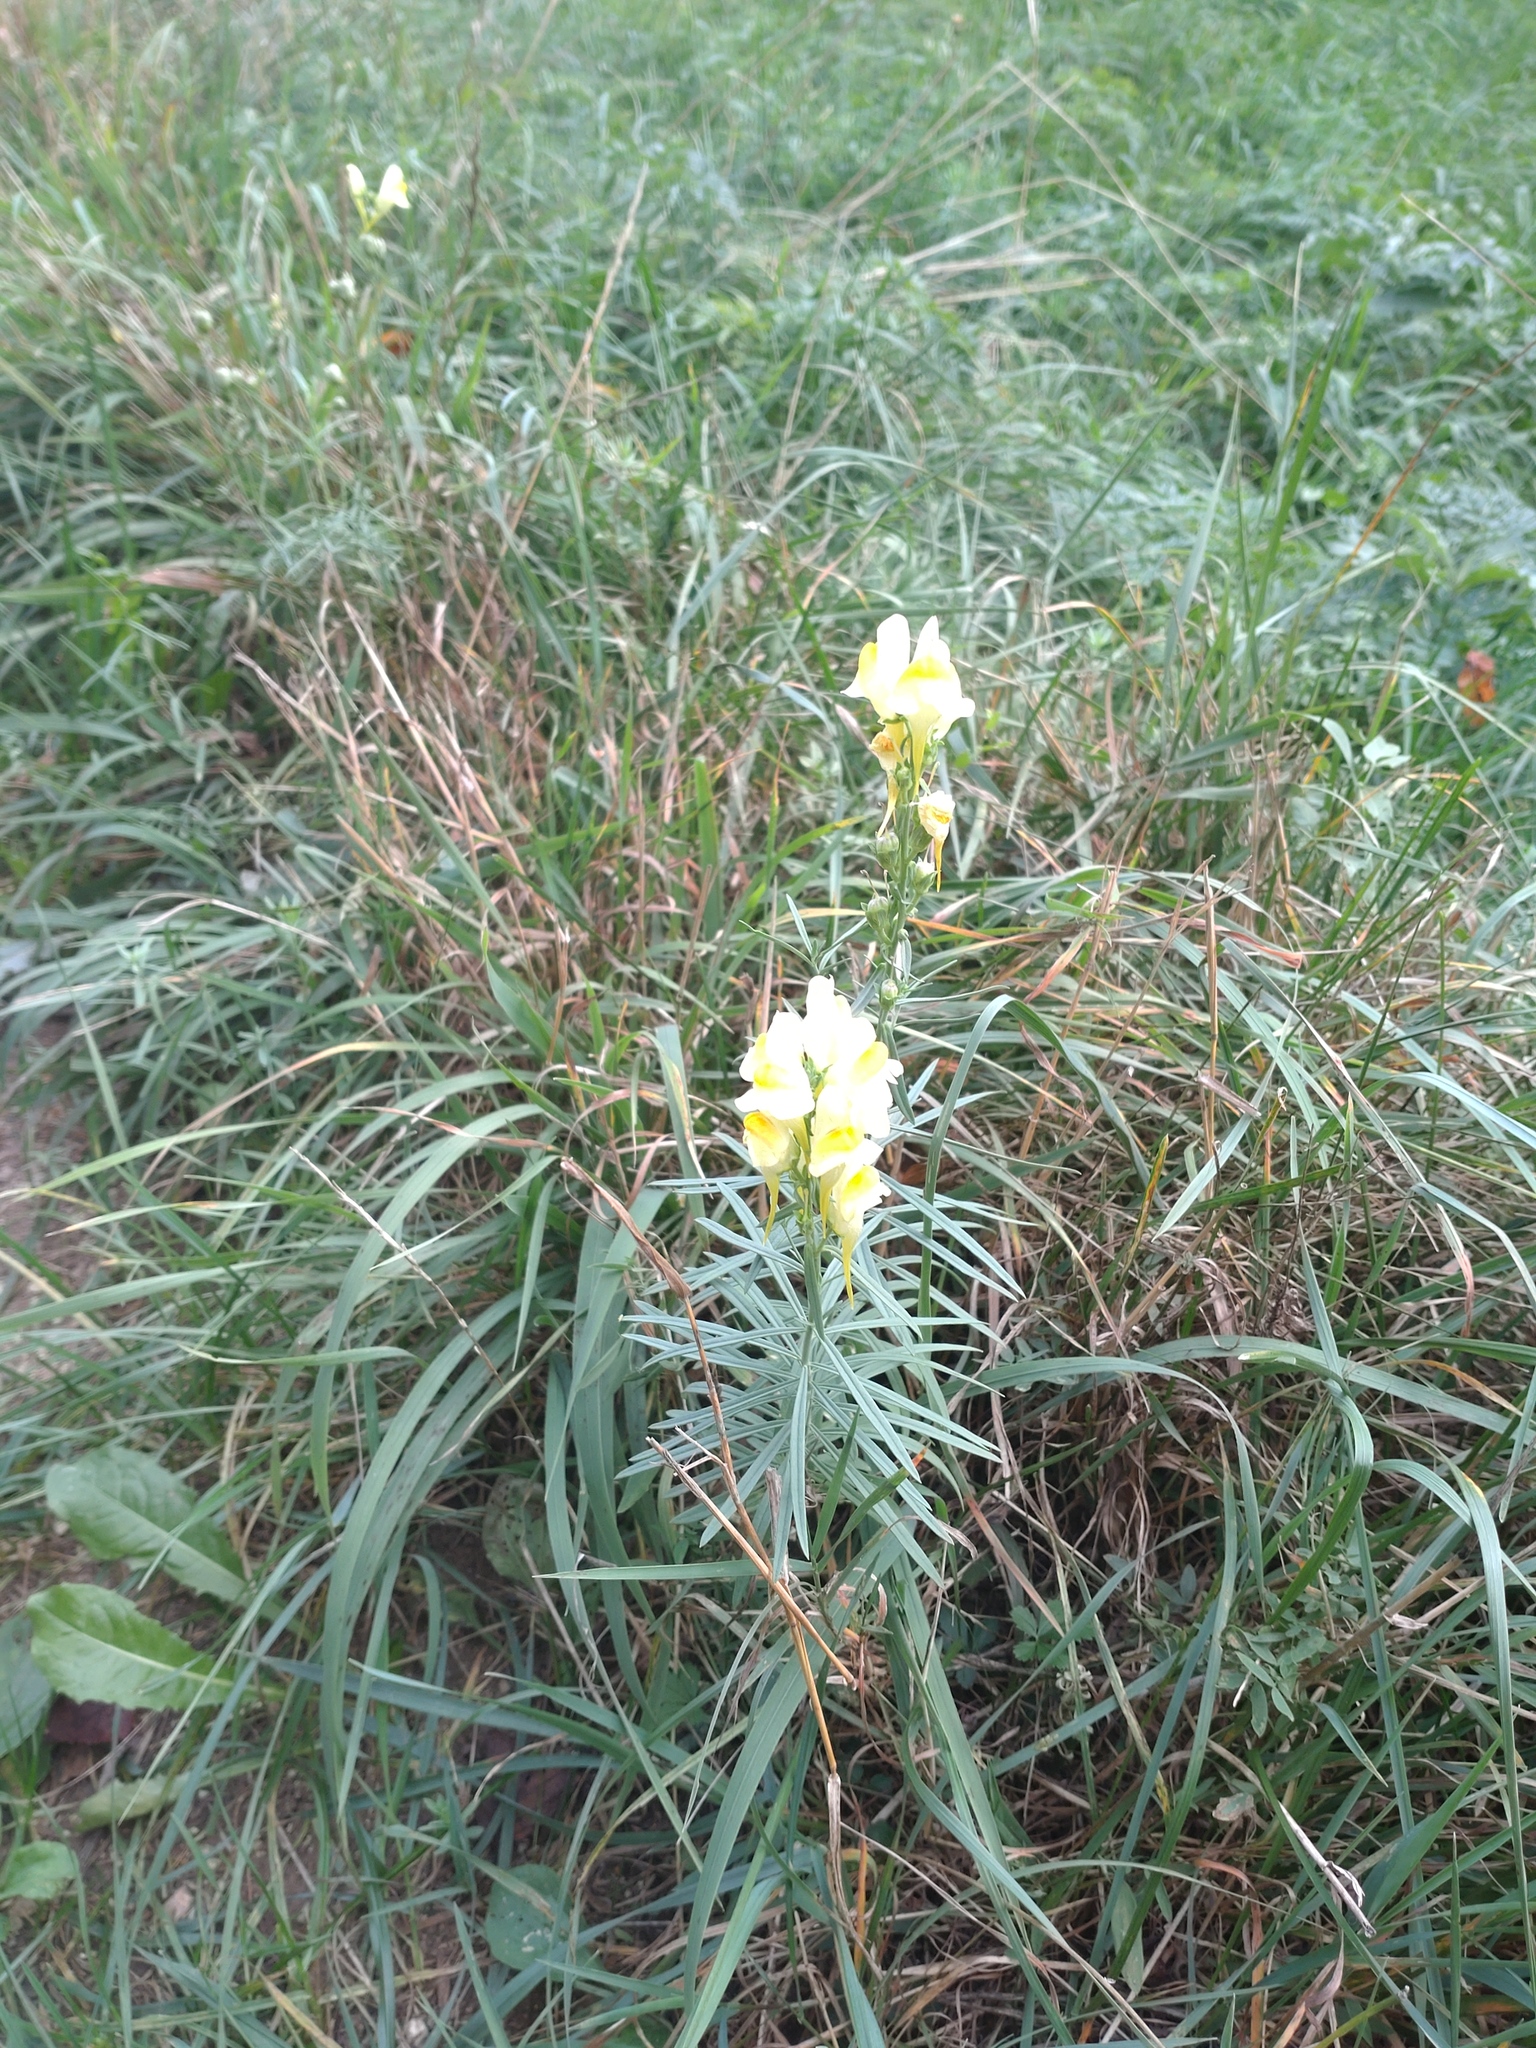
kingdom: Plantae
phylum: Tracheophyta
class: Magnoliopsida
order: Lamiales
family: Plantaginaceae
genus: Linaria
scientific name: Linaria vulgaris
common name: Butter and eggs
